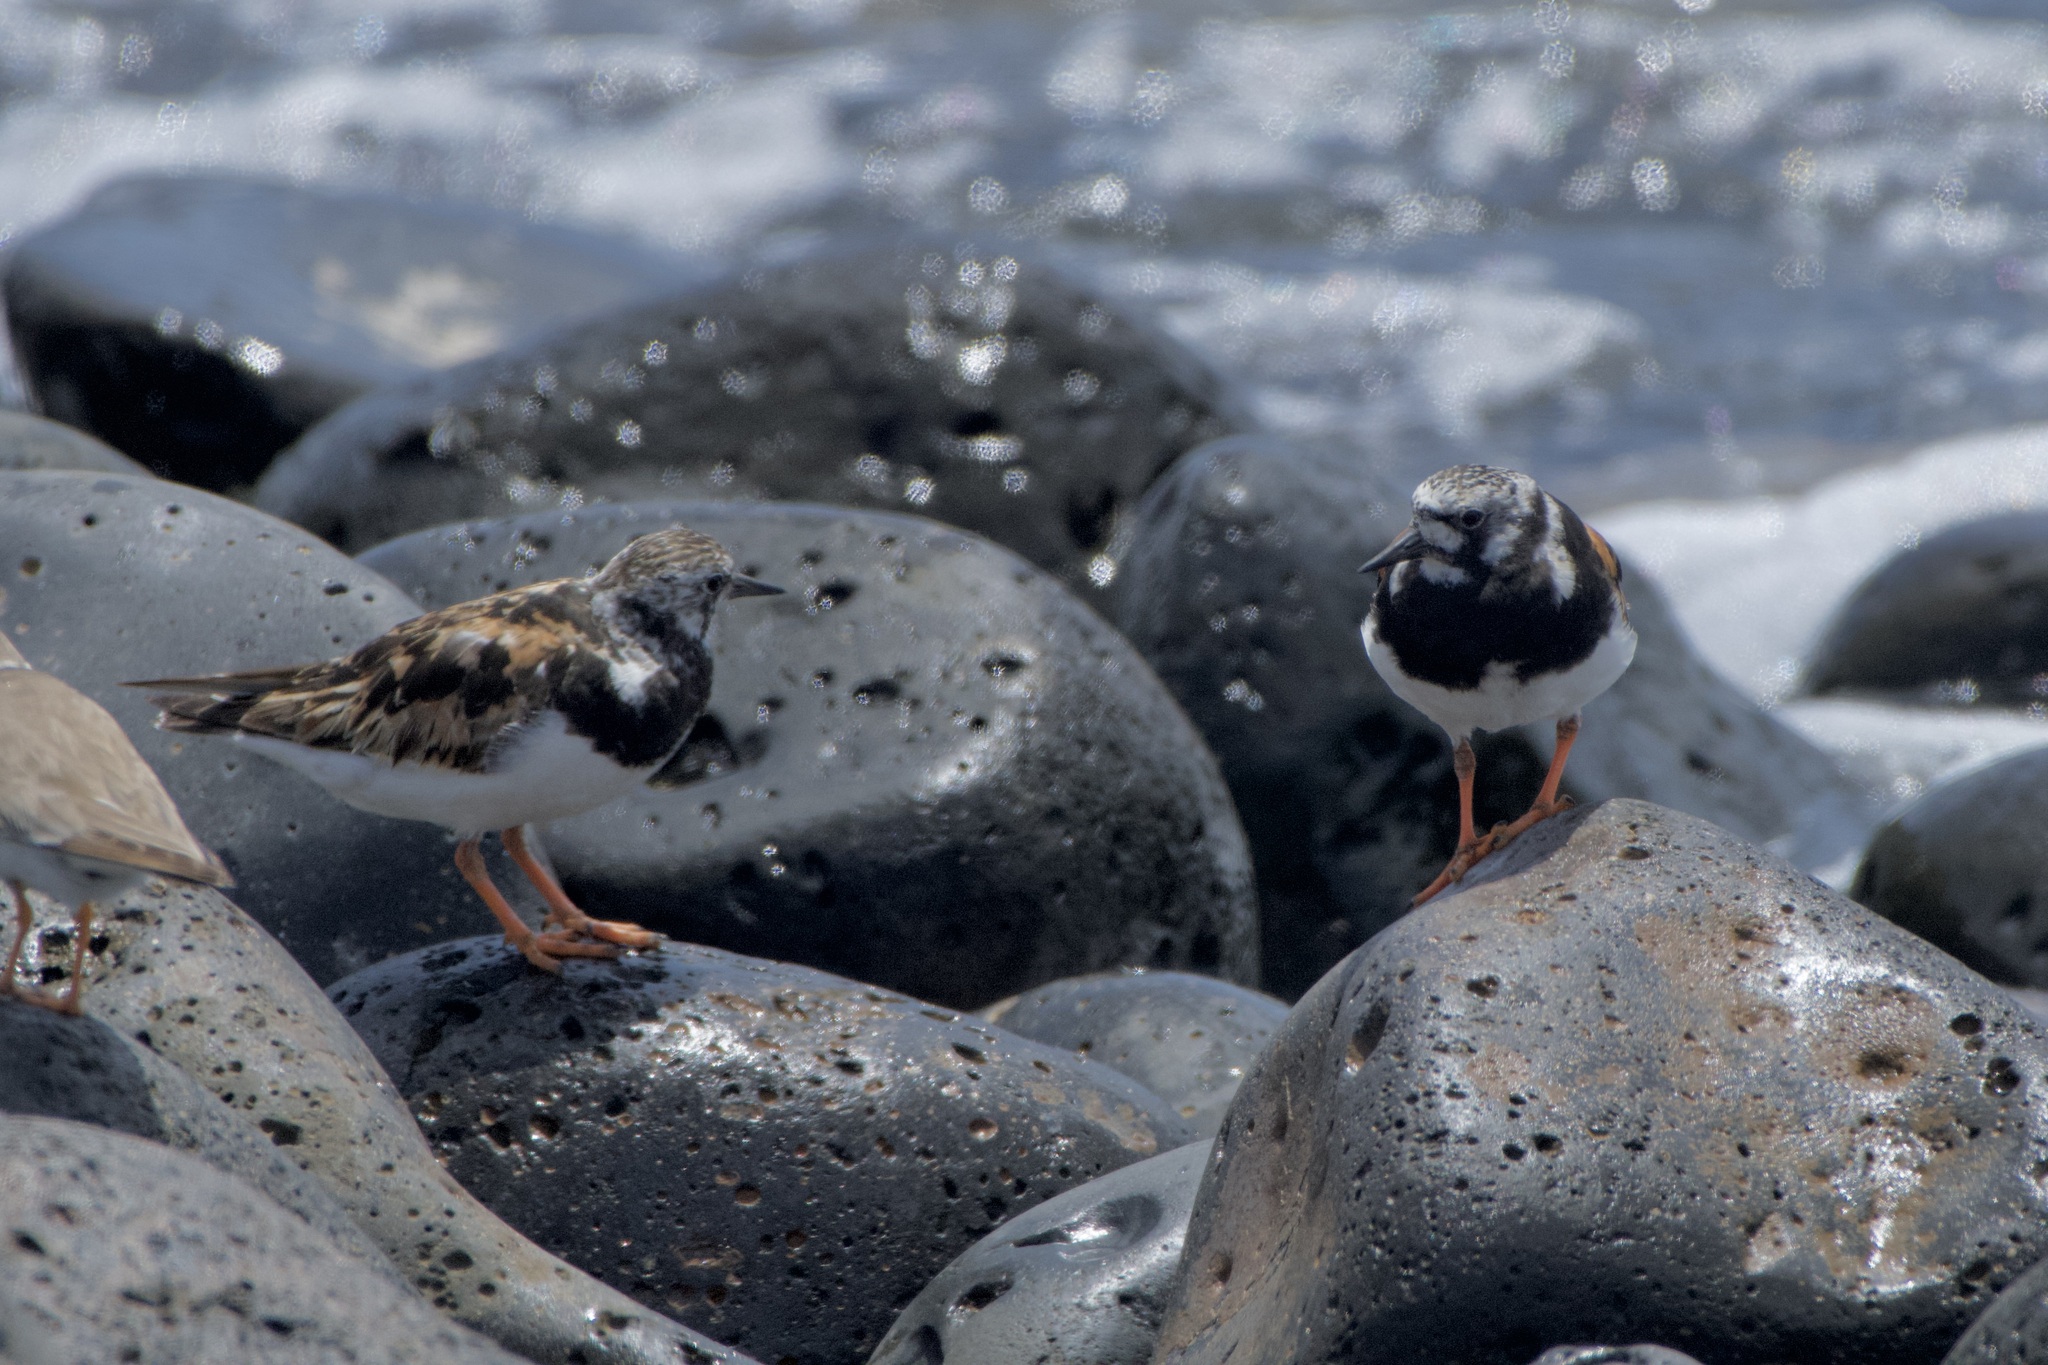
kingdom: Animalia
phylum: Chordata
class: Aves
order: Charadriiformes
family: Scolopacidae
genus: Arenaria
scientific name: Arenaria interpres
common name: Ruddy turnstone
